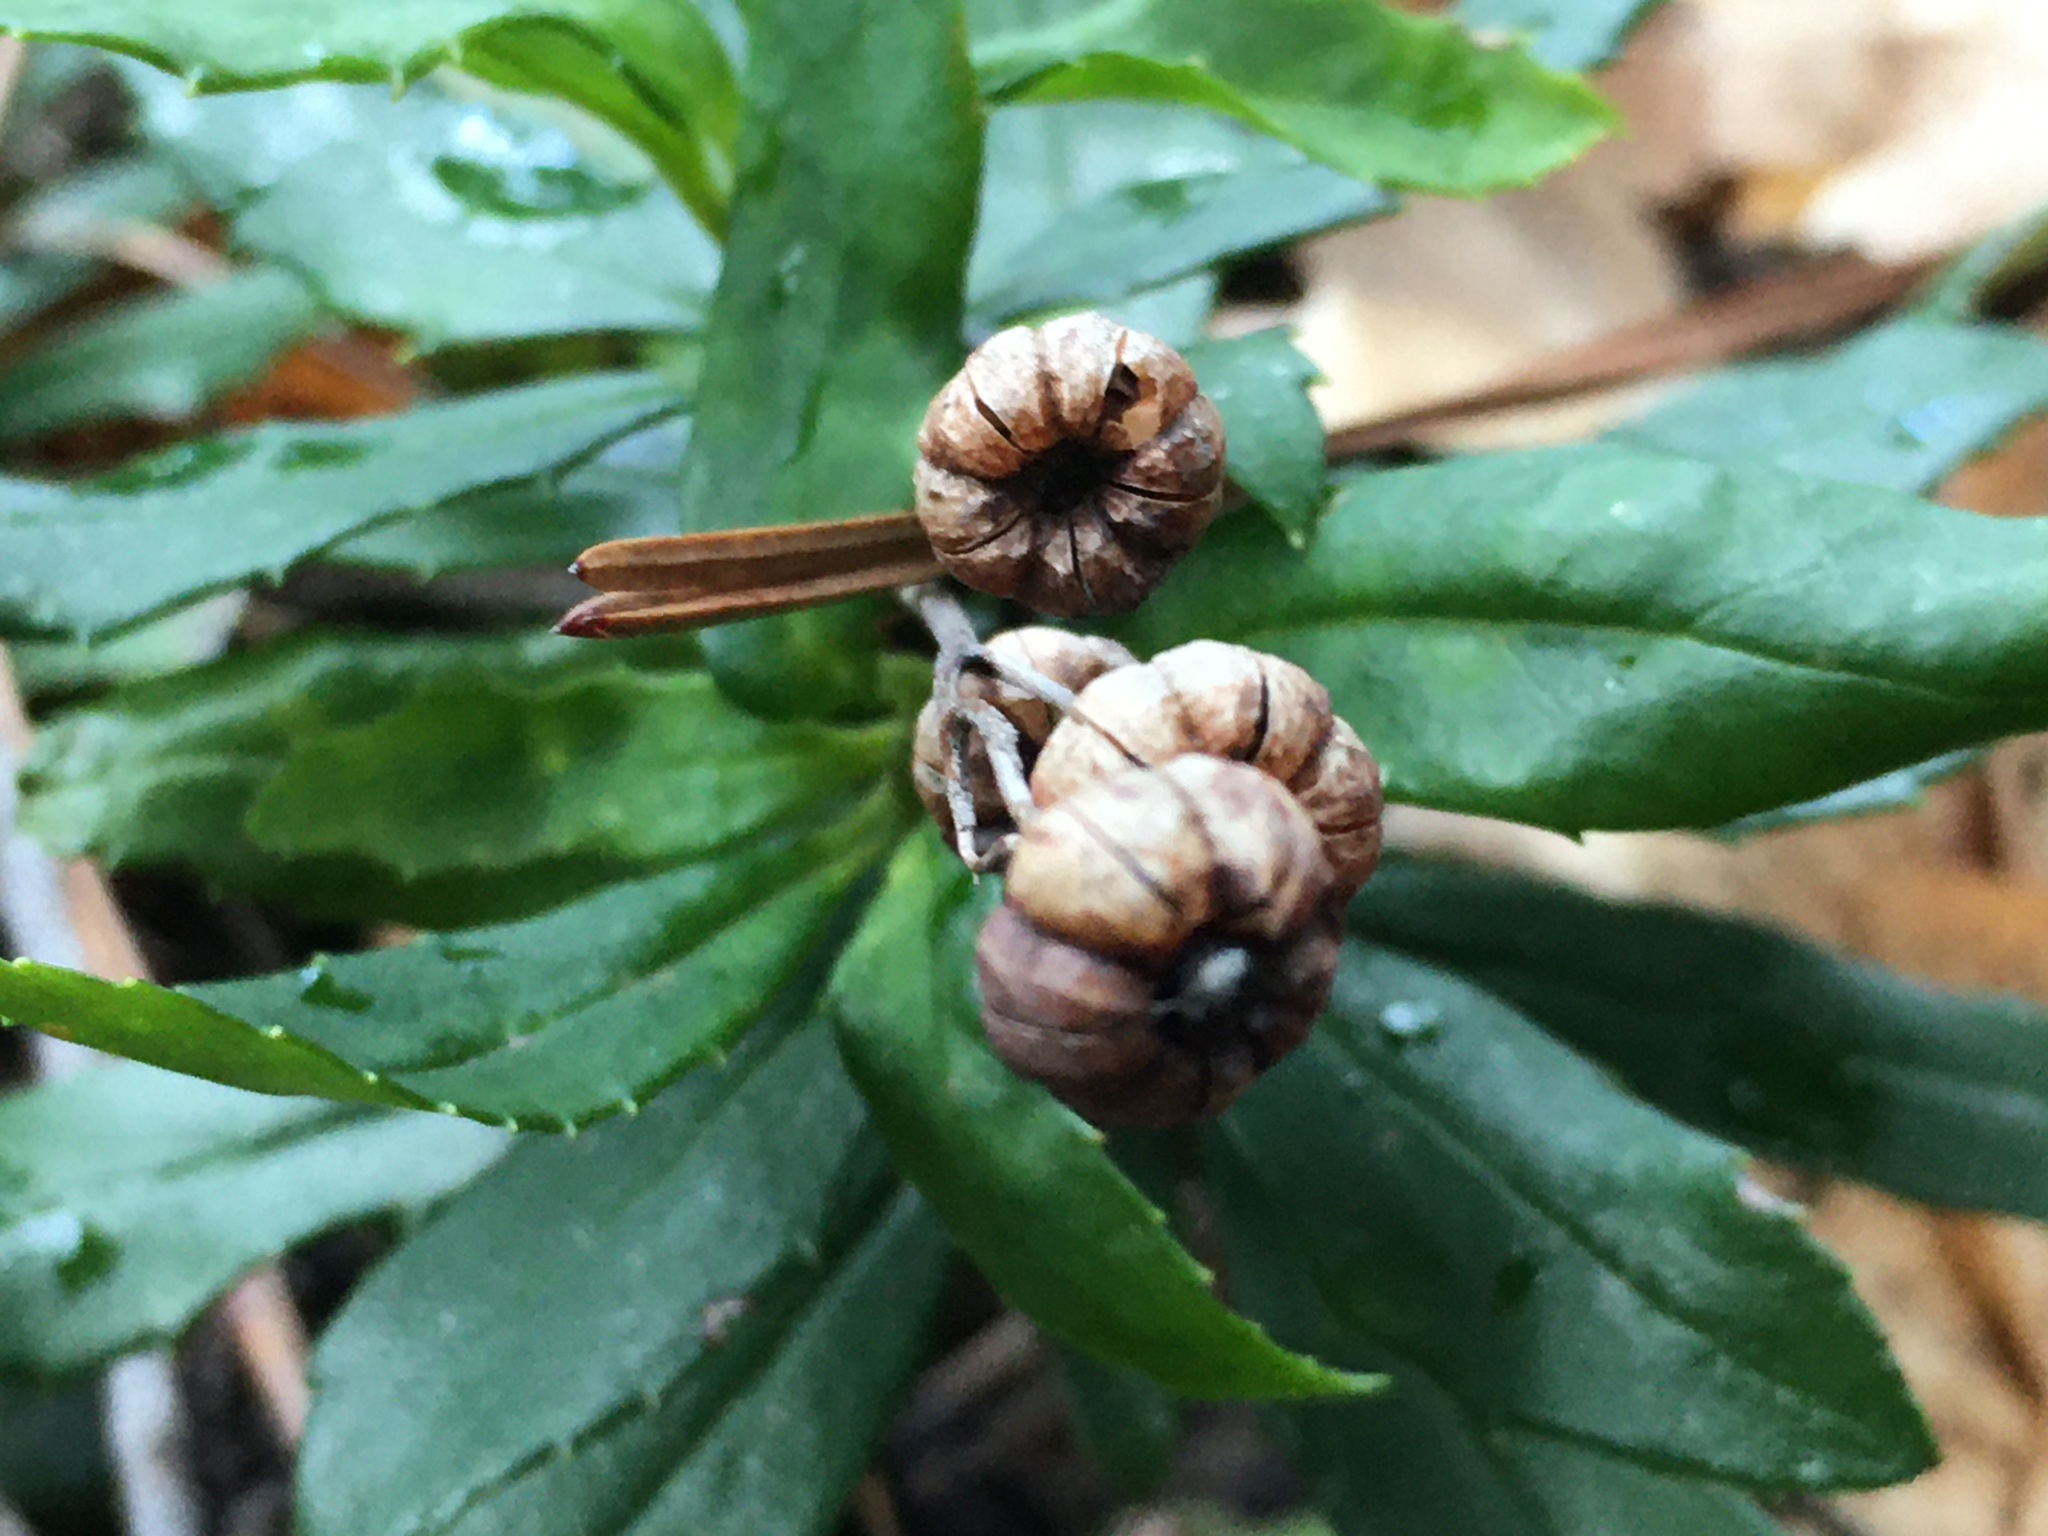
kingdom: Plantae
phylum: Tracheophyta
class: Magnoliopsida
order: Ericales
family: Ericaceae
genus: Chimaphila
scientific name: Chimaphila umbellata
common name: Pipsissewa
